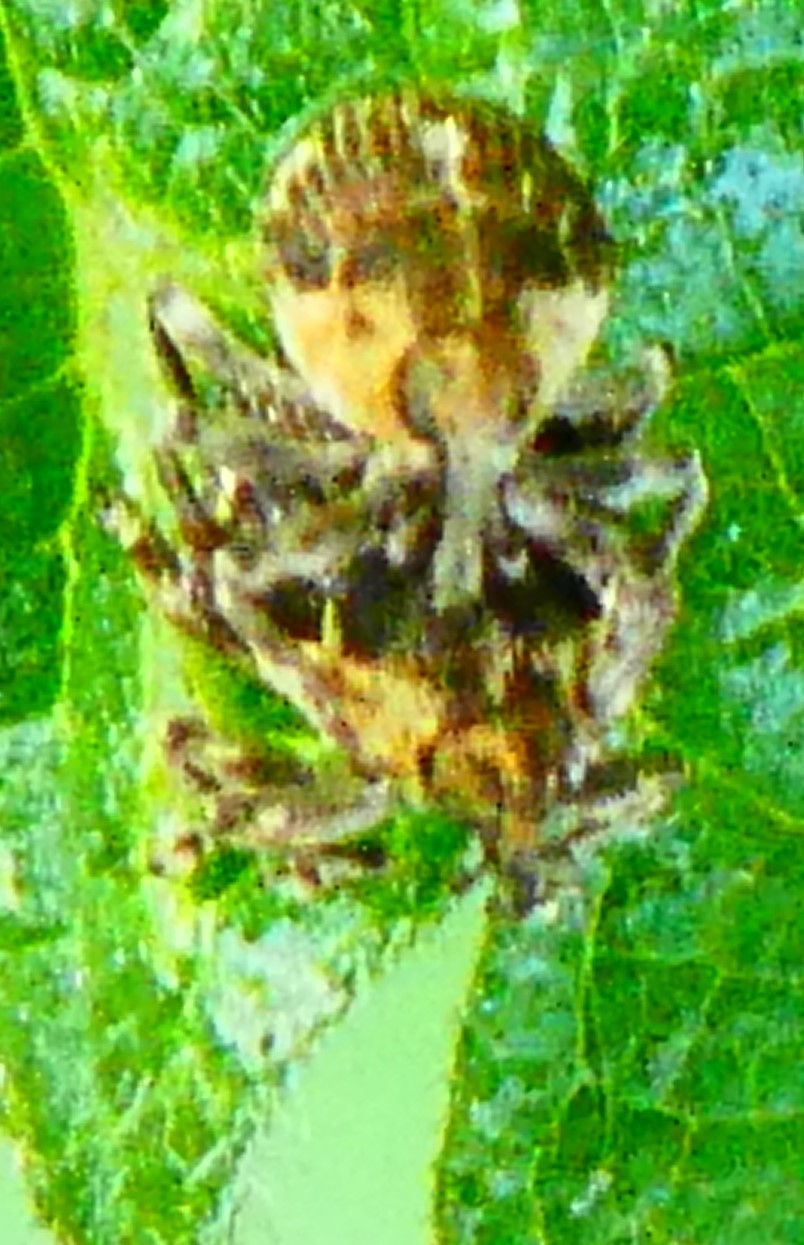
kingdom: Animalia
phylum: Arthropoda
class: Insecta
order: Coleoptera
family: Curculionidae
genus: Nedyus
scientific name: Nedyus quadrimaculatus
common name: Small nettle weevil
